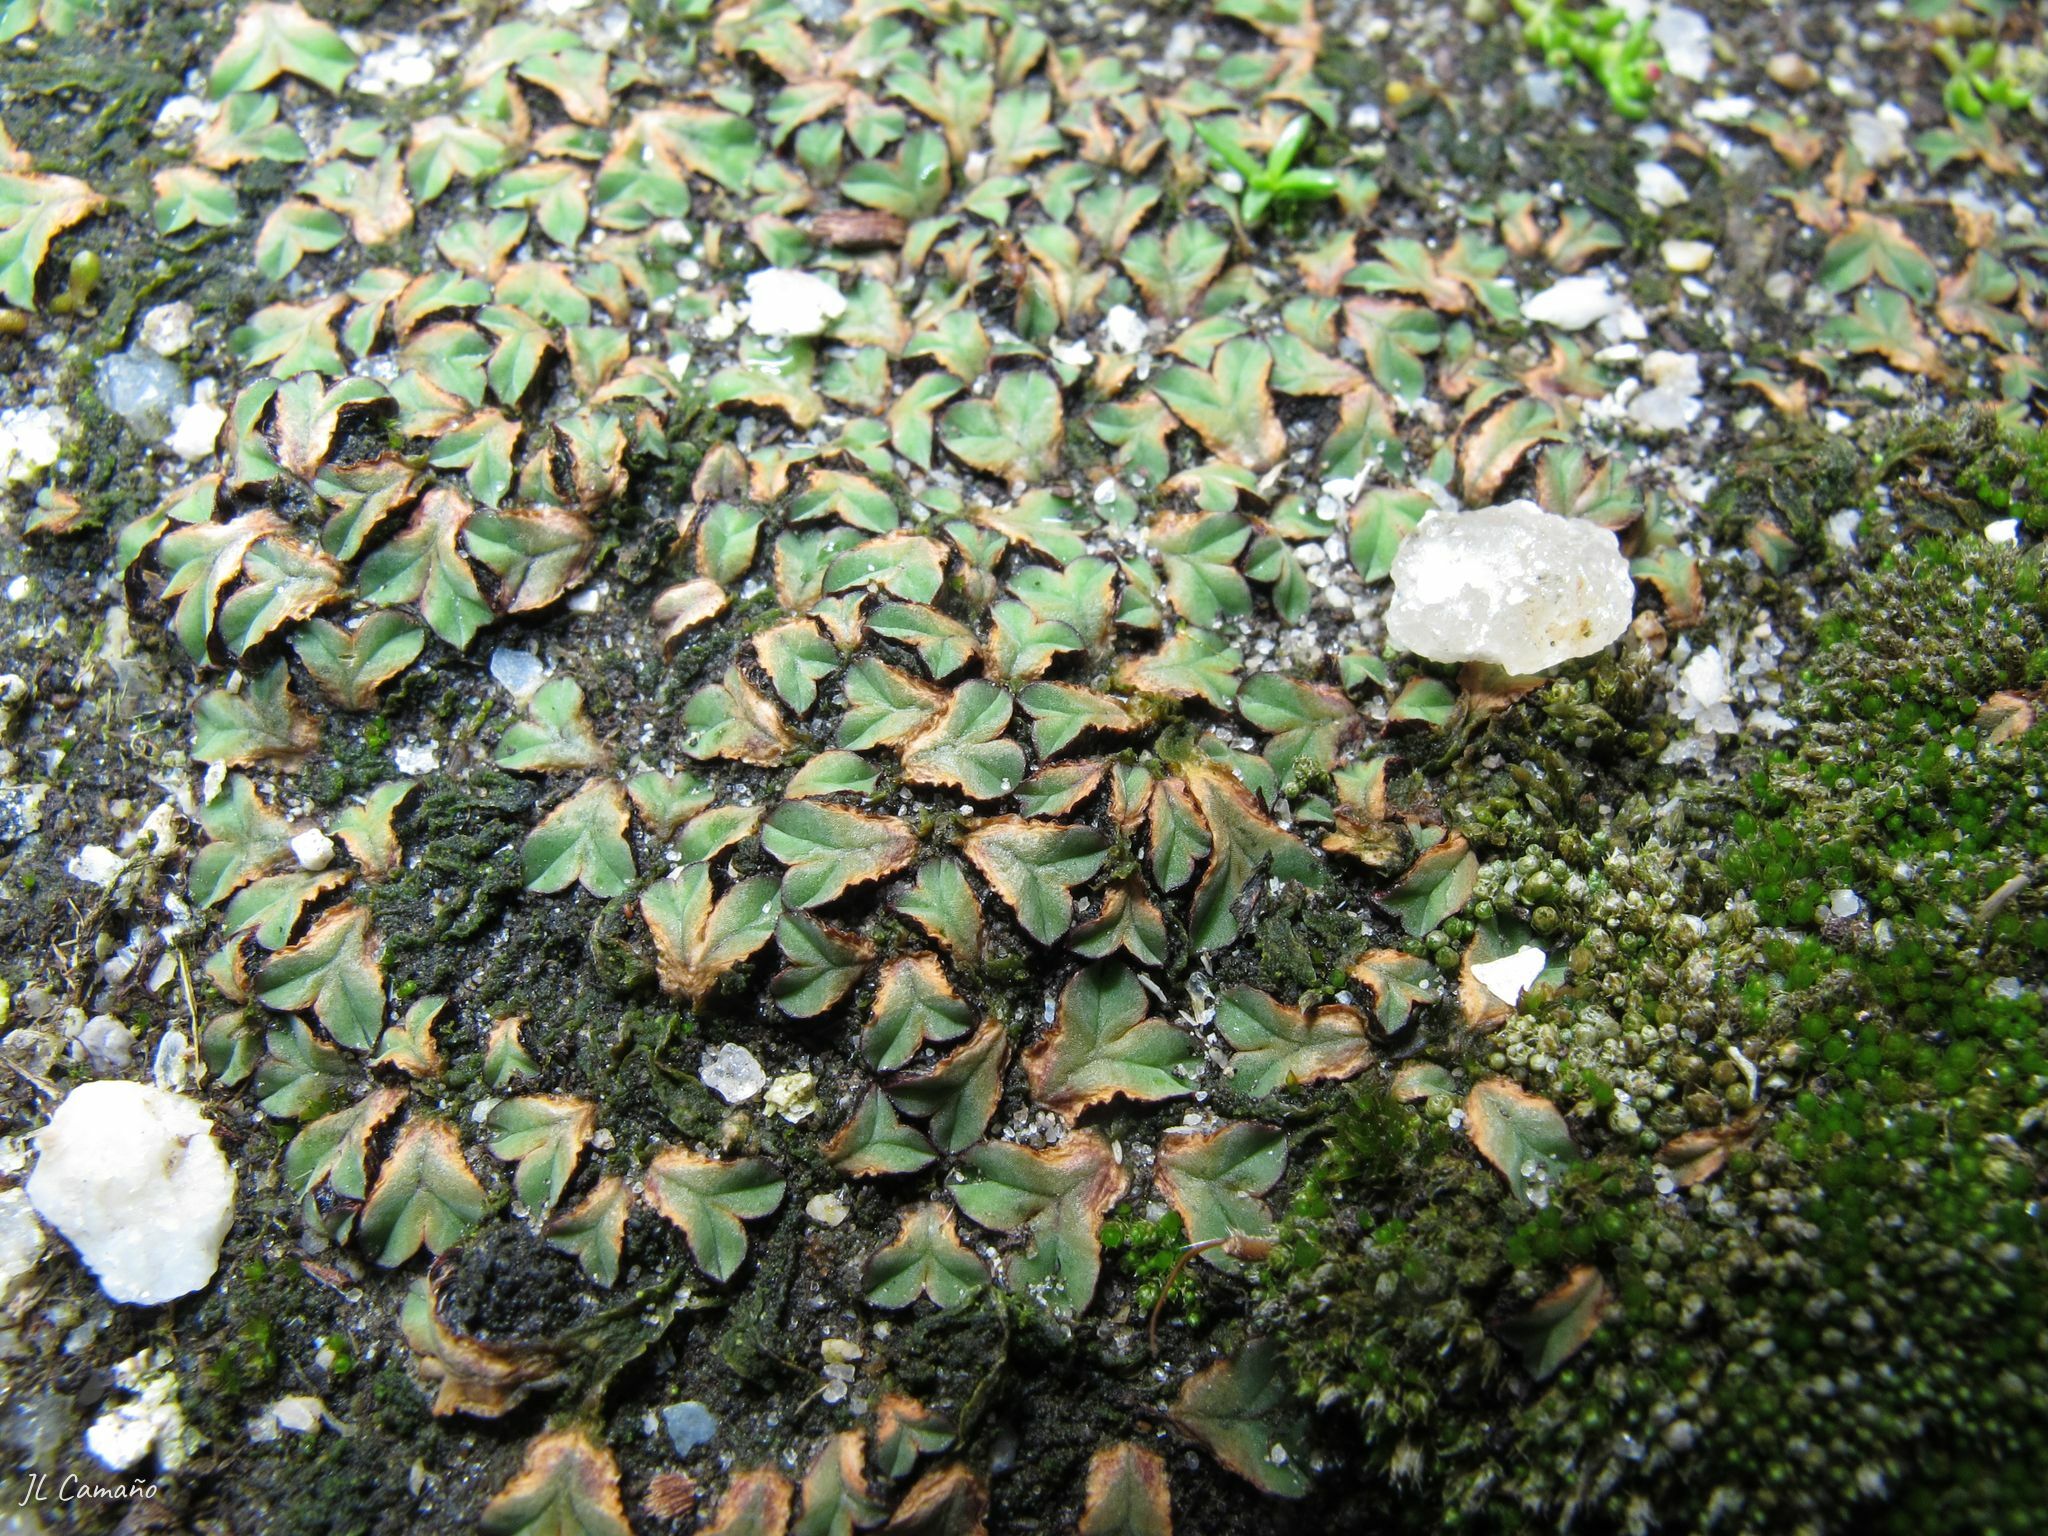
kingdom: Plantae
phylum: Marchantiophyta
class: Marchantiopsida
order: Marchantiales
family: Ricciaceae
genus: Riccia
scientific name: Riccia sommieri
